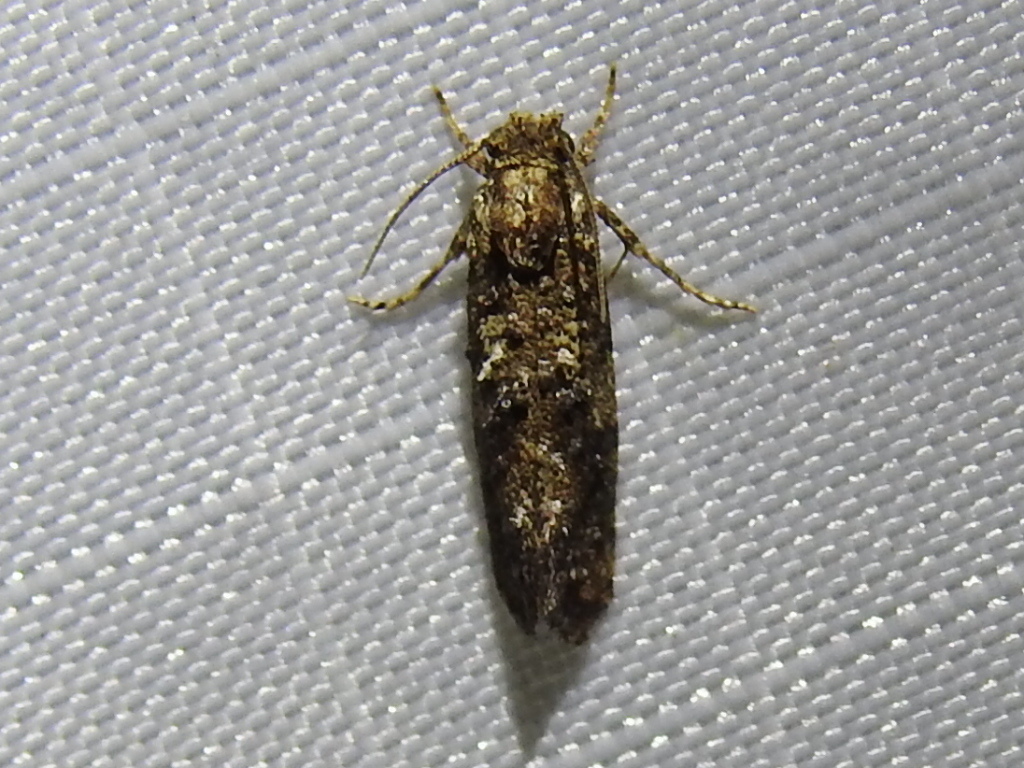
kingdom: Animalia
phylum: Arthropoda
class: Insecta
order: Lepidoptera
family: Tineidae
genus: Acrolophus
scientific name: Acrolophus cressoni
